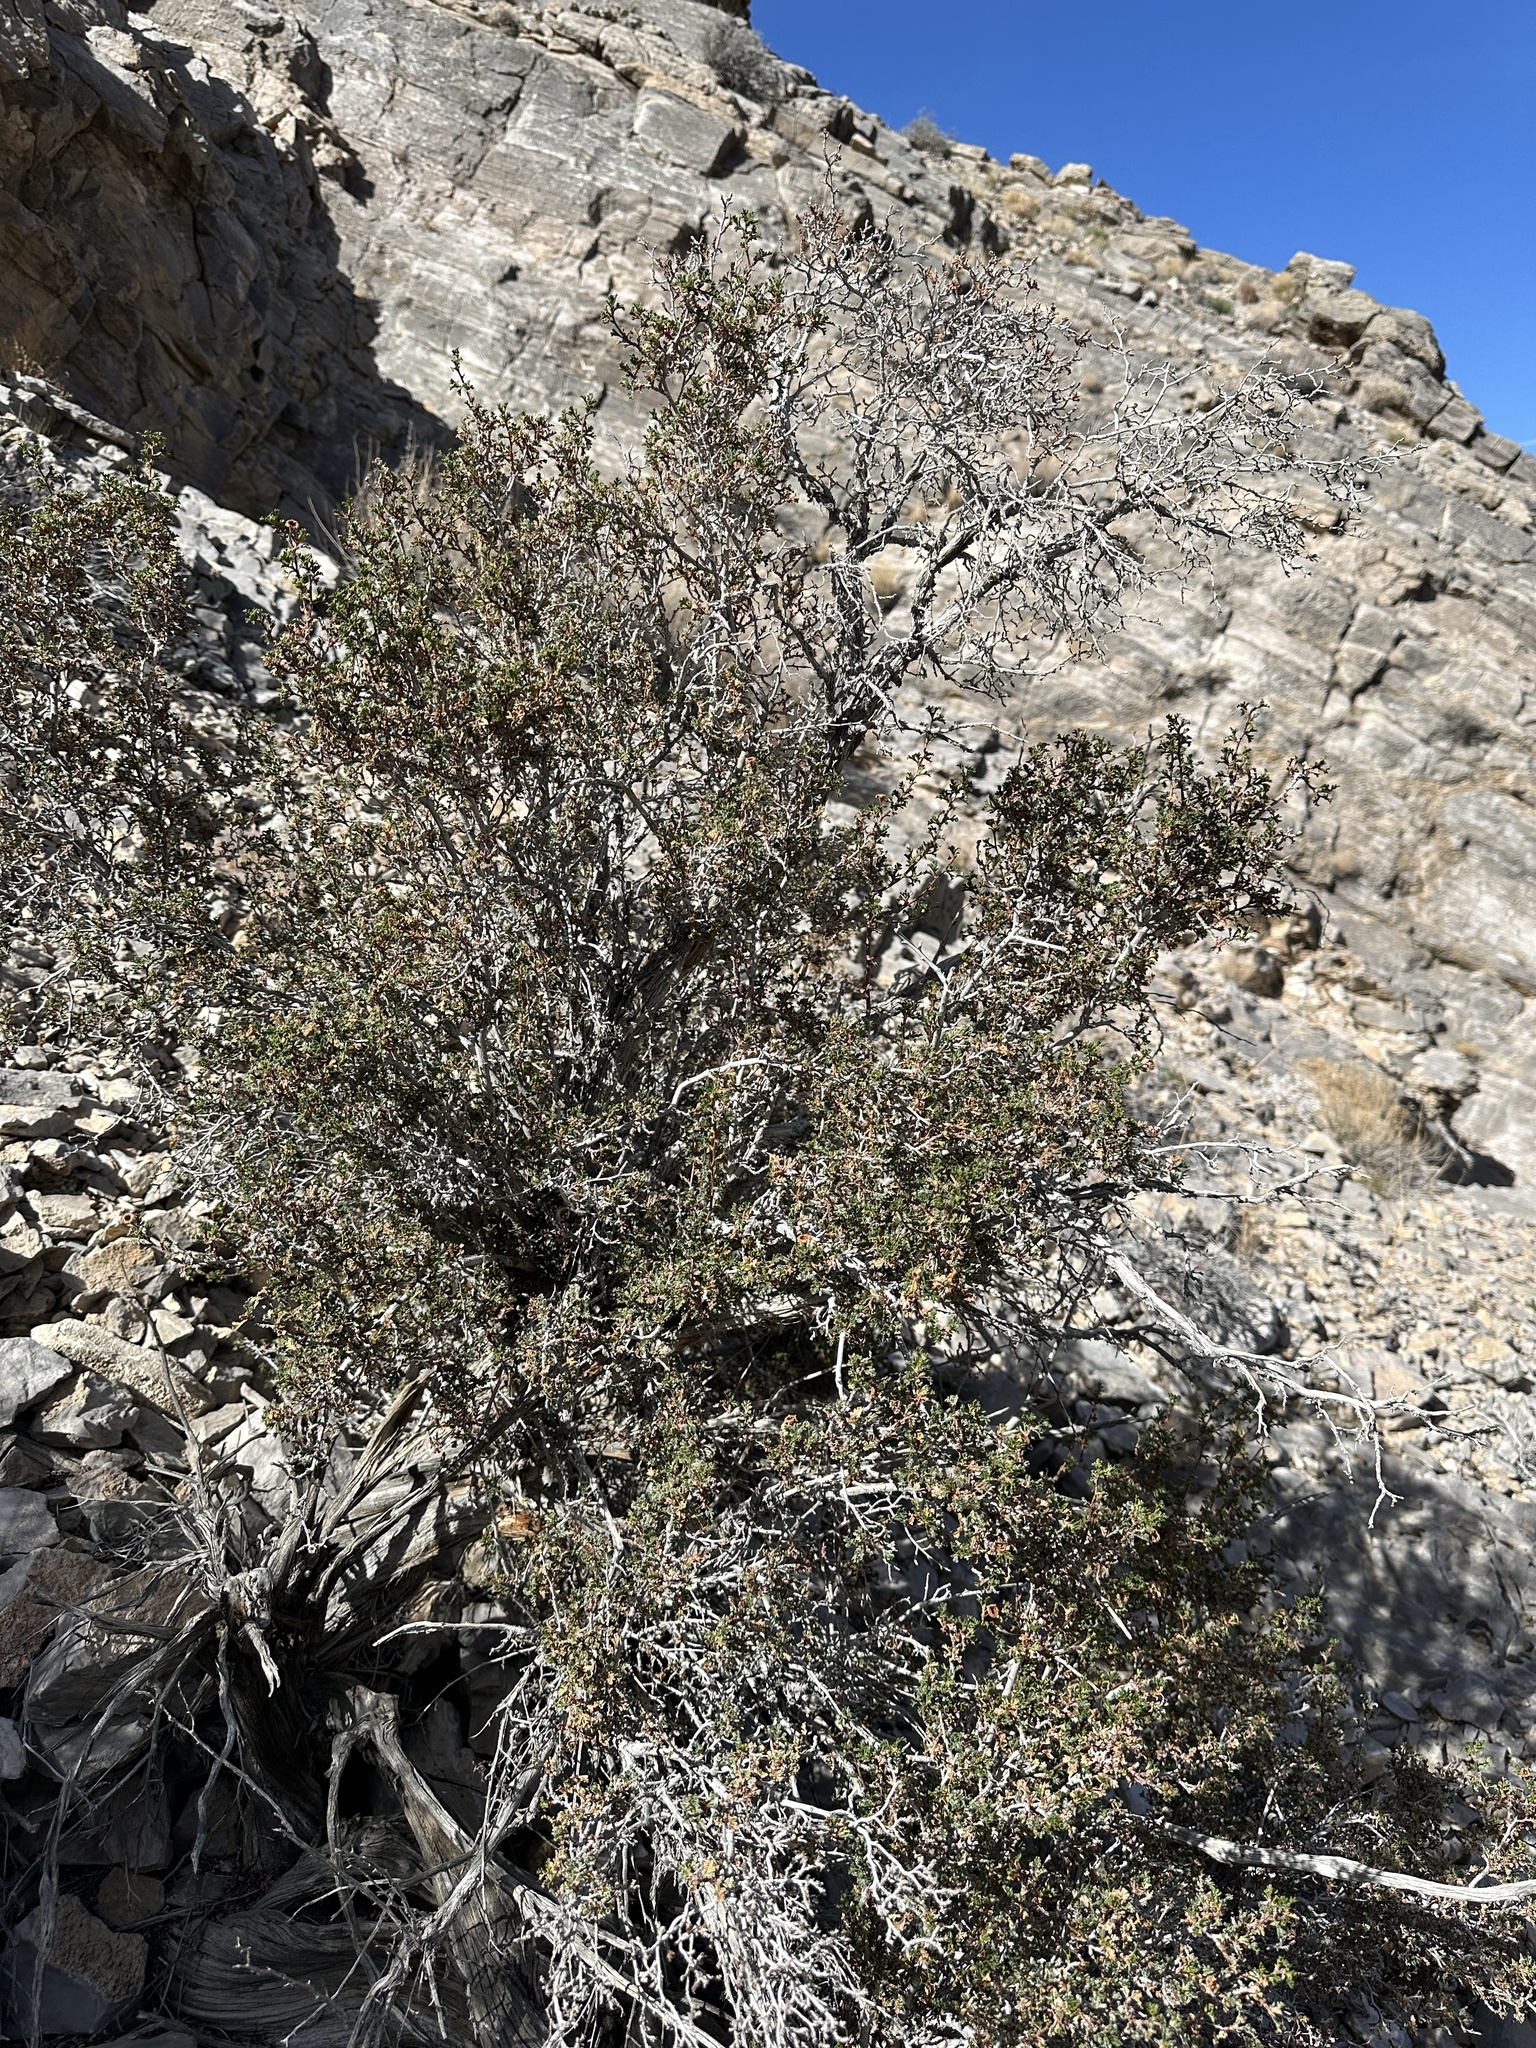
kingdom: Plantae
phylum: Tracheophyta
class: Magnoliopsida
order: Rosales
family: Rosaceae
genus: Purshia
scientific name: Purshia stansburiana
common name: Stansbury's cliffrose
